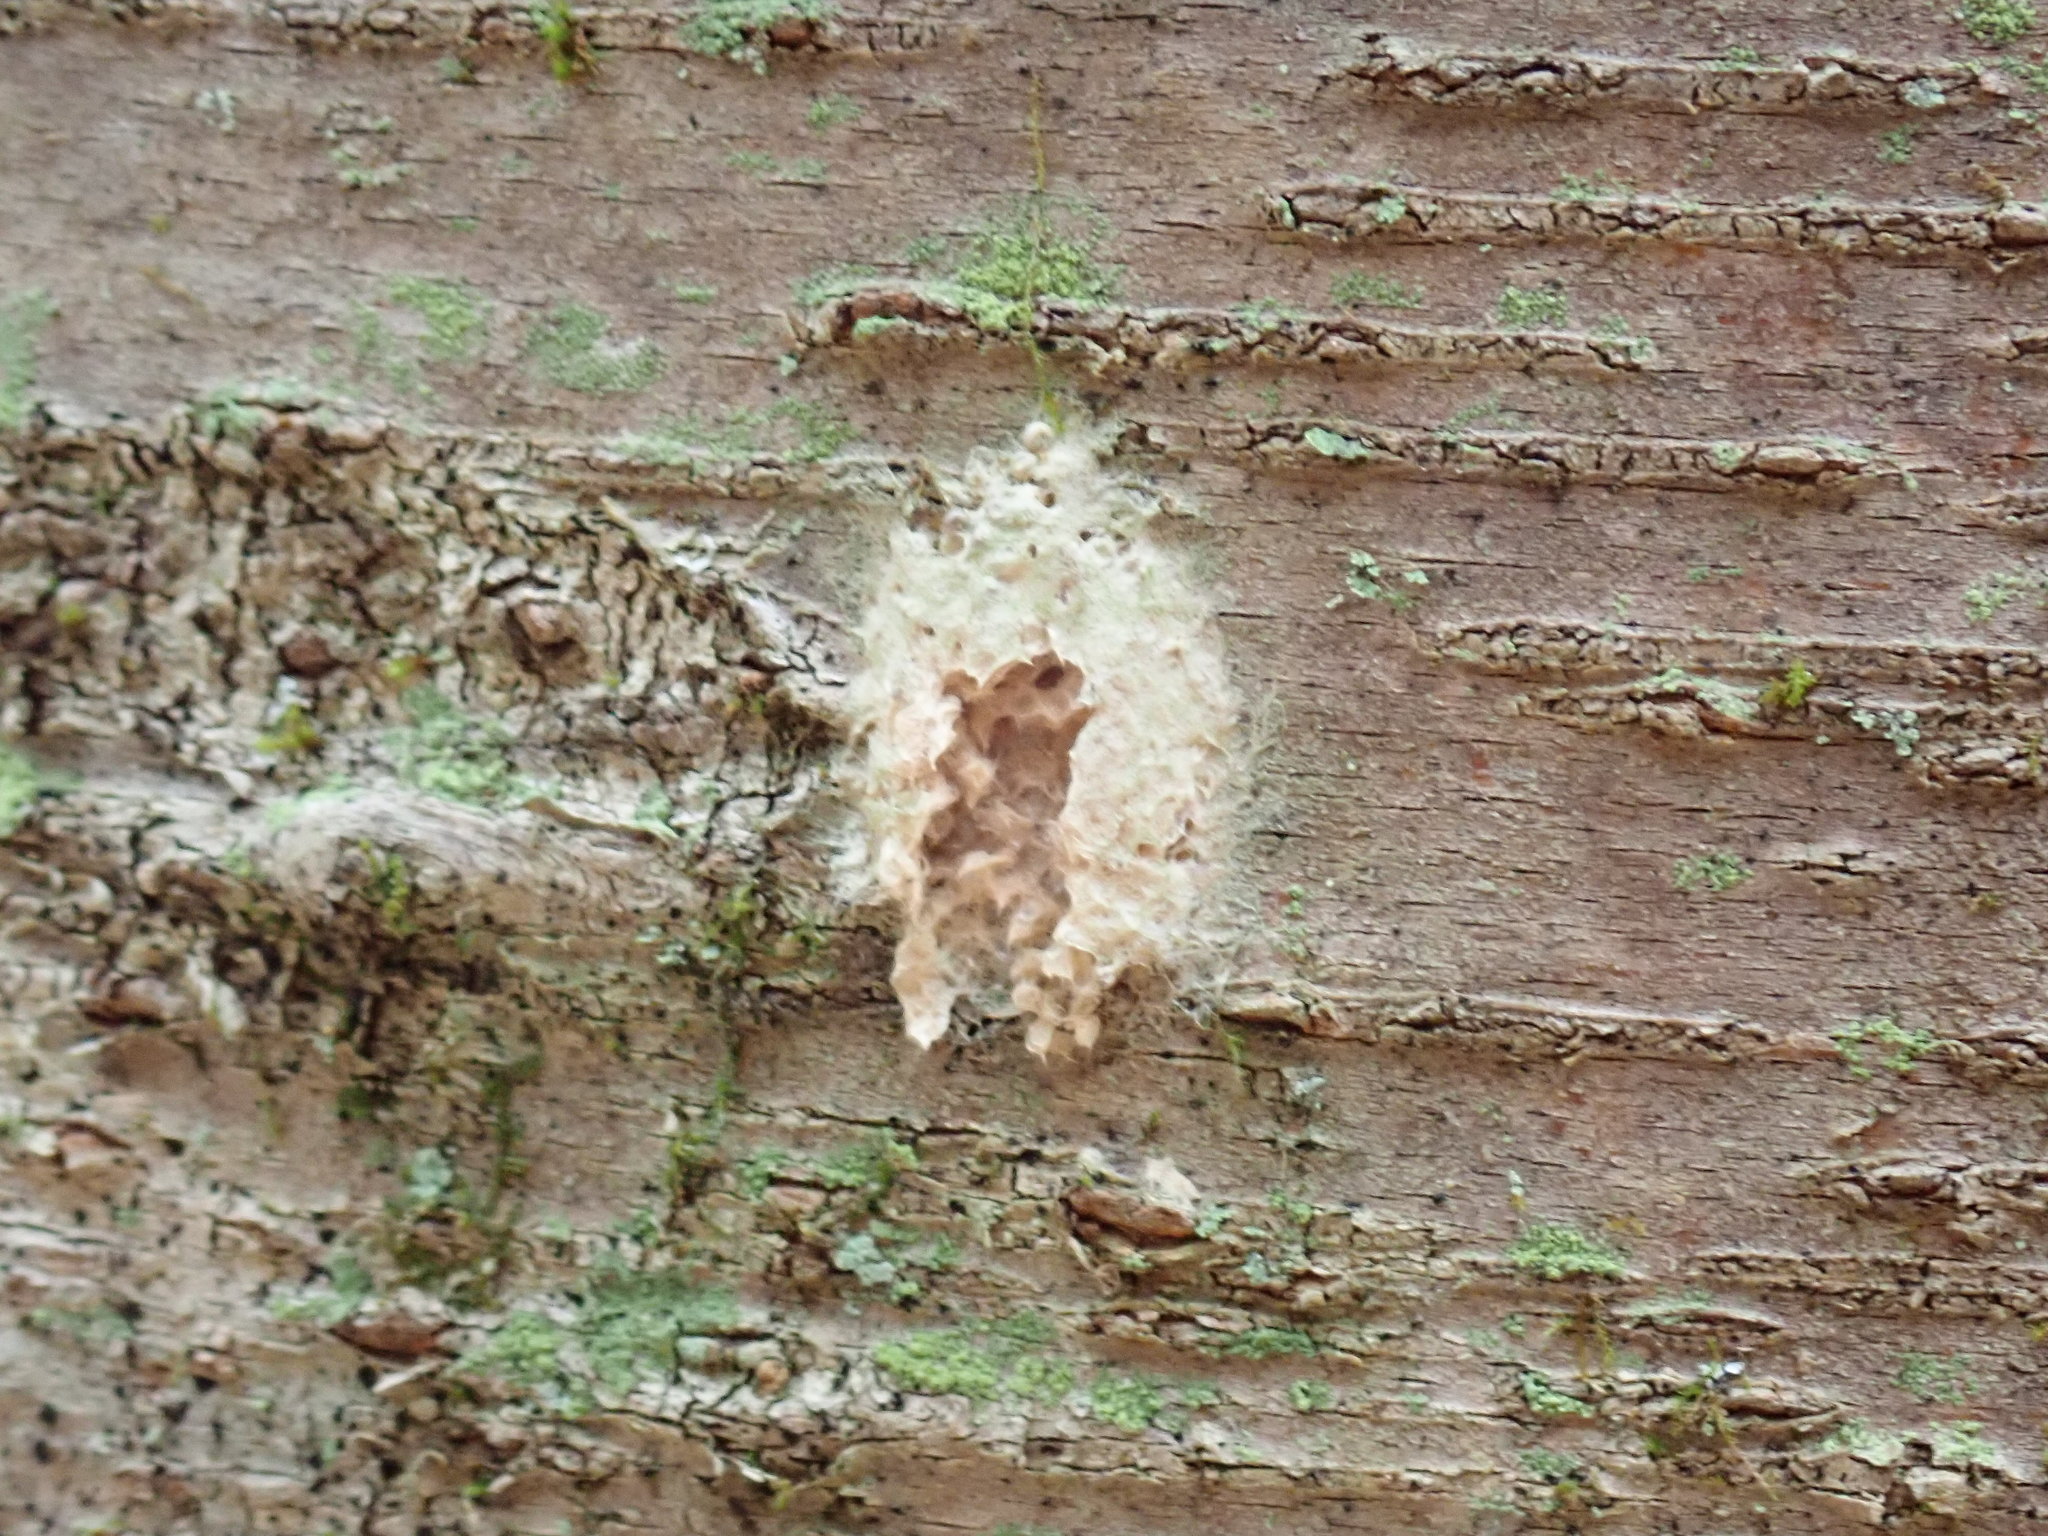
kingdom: Animalia
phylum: Arthropoda
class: Insecta
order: Lepidoptera
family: Erebidae
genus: Lymantria
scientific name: Lymantria dispar
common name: Gypsy moth
